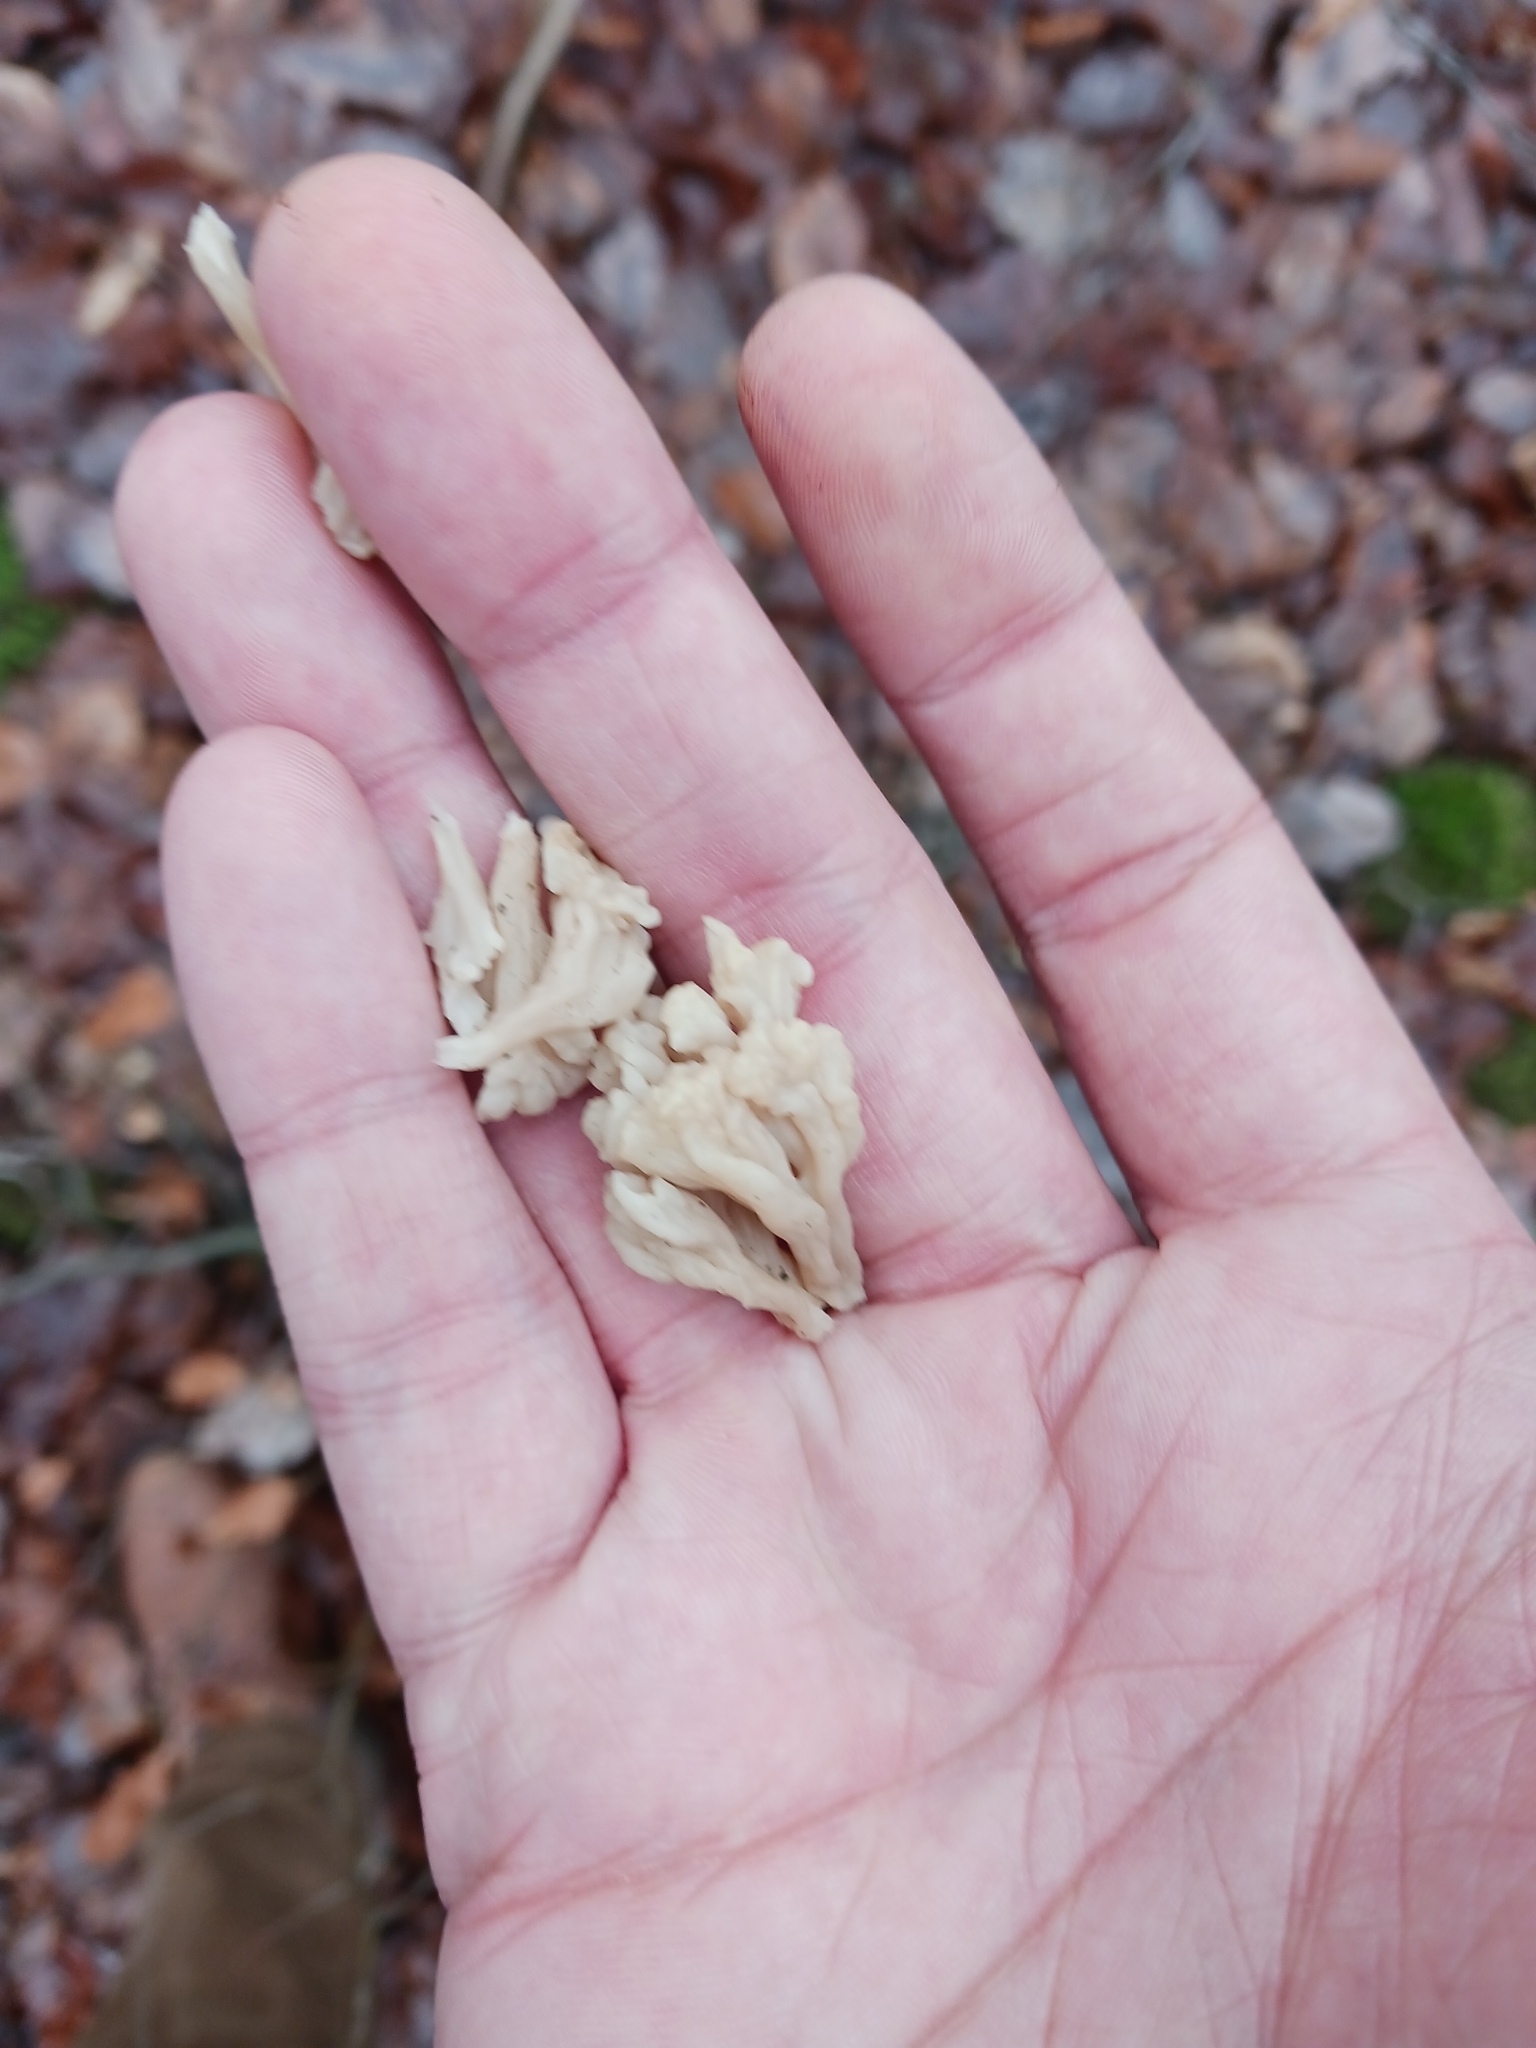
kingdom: Fungi
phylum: Basidiomycota
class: Agaricomycetes
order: Cantharellales
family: Hydnaceae
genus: Clavulina
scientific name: Clavulina rugosa
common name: Wrinkled club
